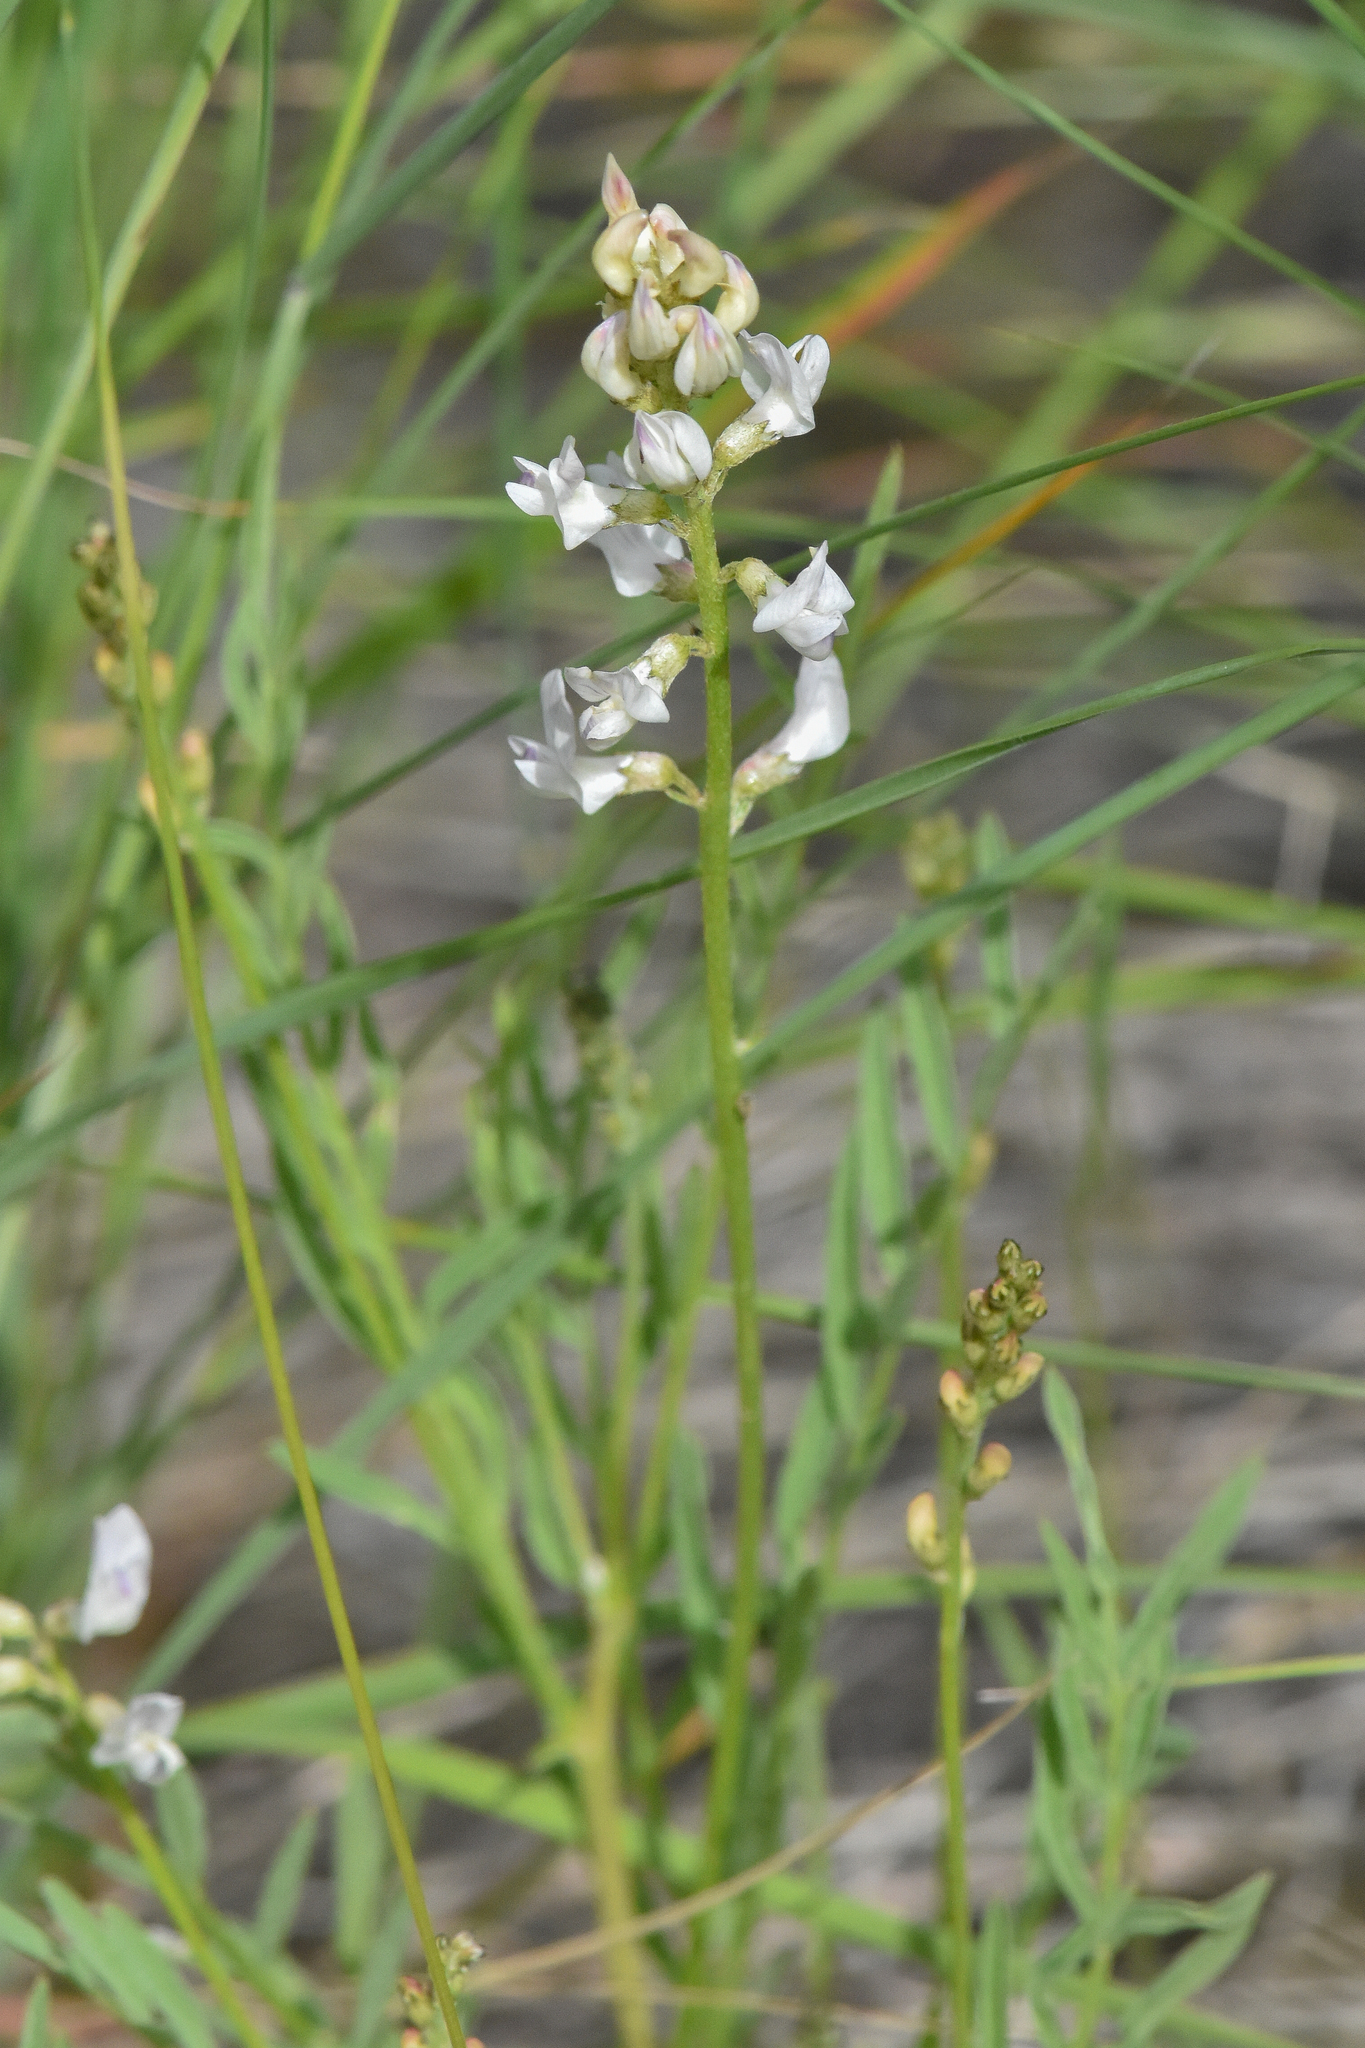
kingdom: Plantae
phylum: Tracheophyta
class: Magnoliopsida
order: Fabales
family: Fabaceae
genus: Astragalus
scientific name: Astragalus miser
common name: Timber milkvetch
